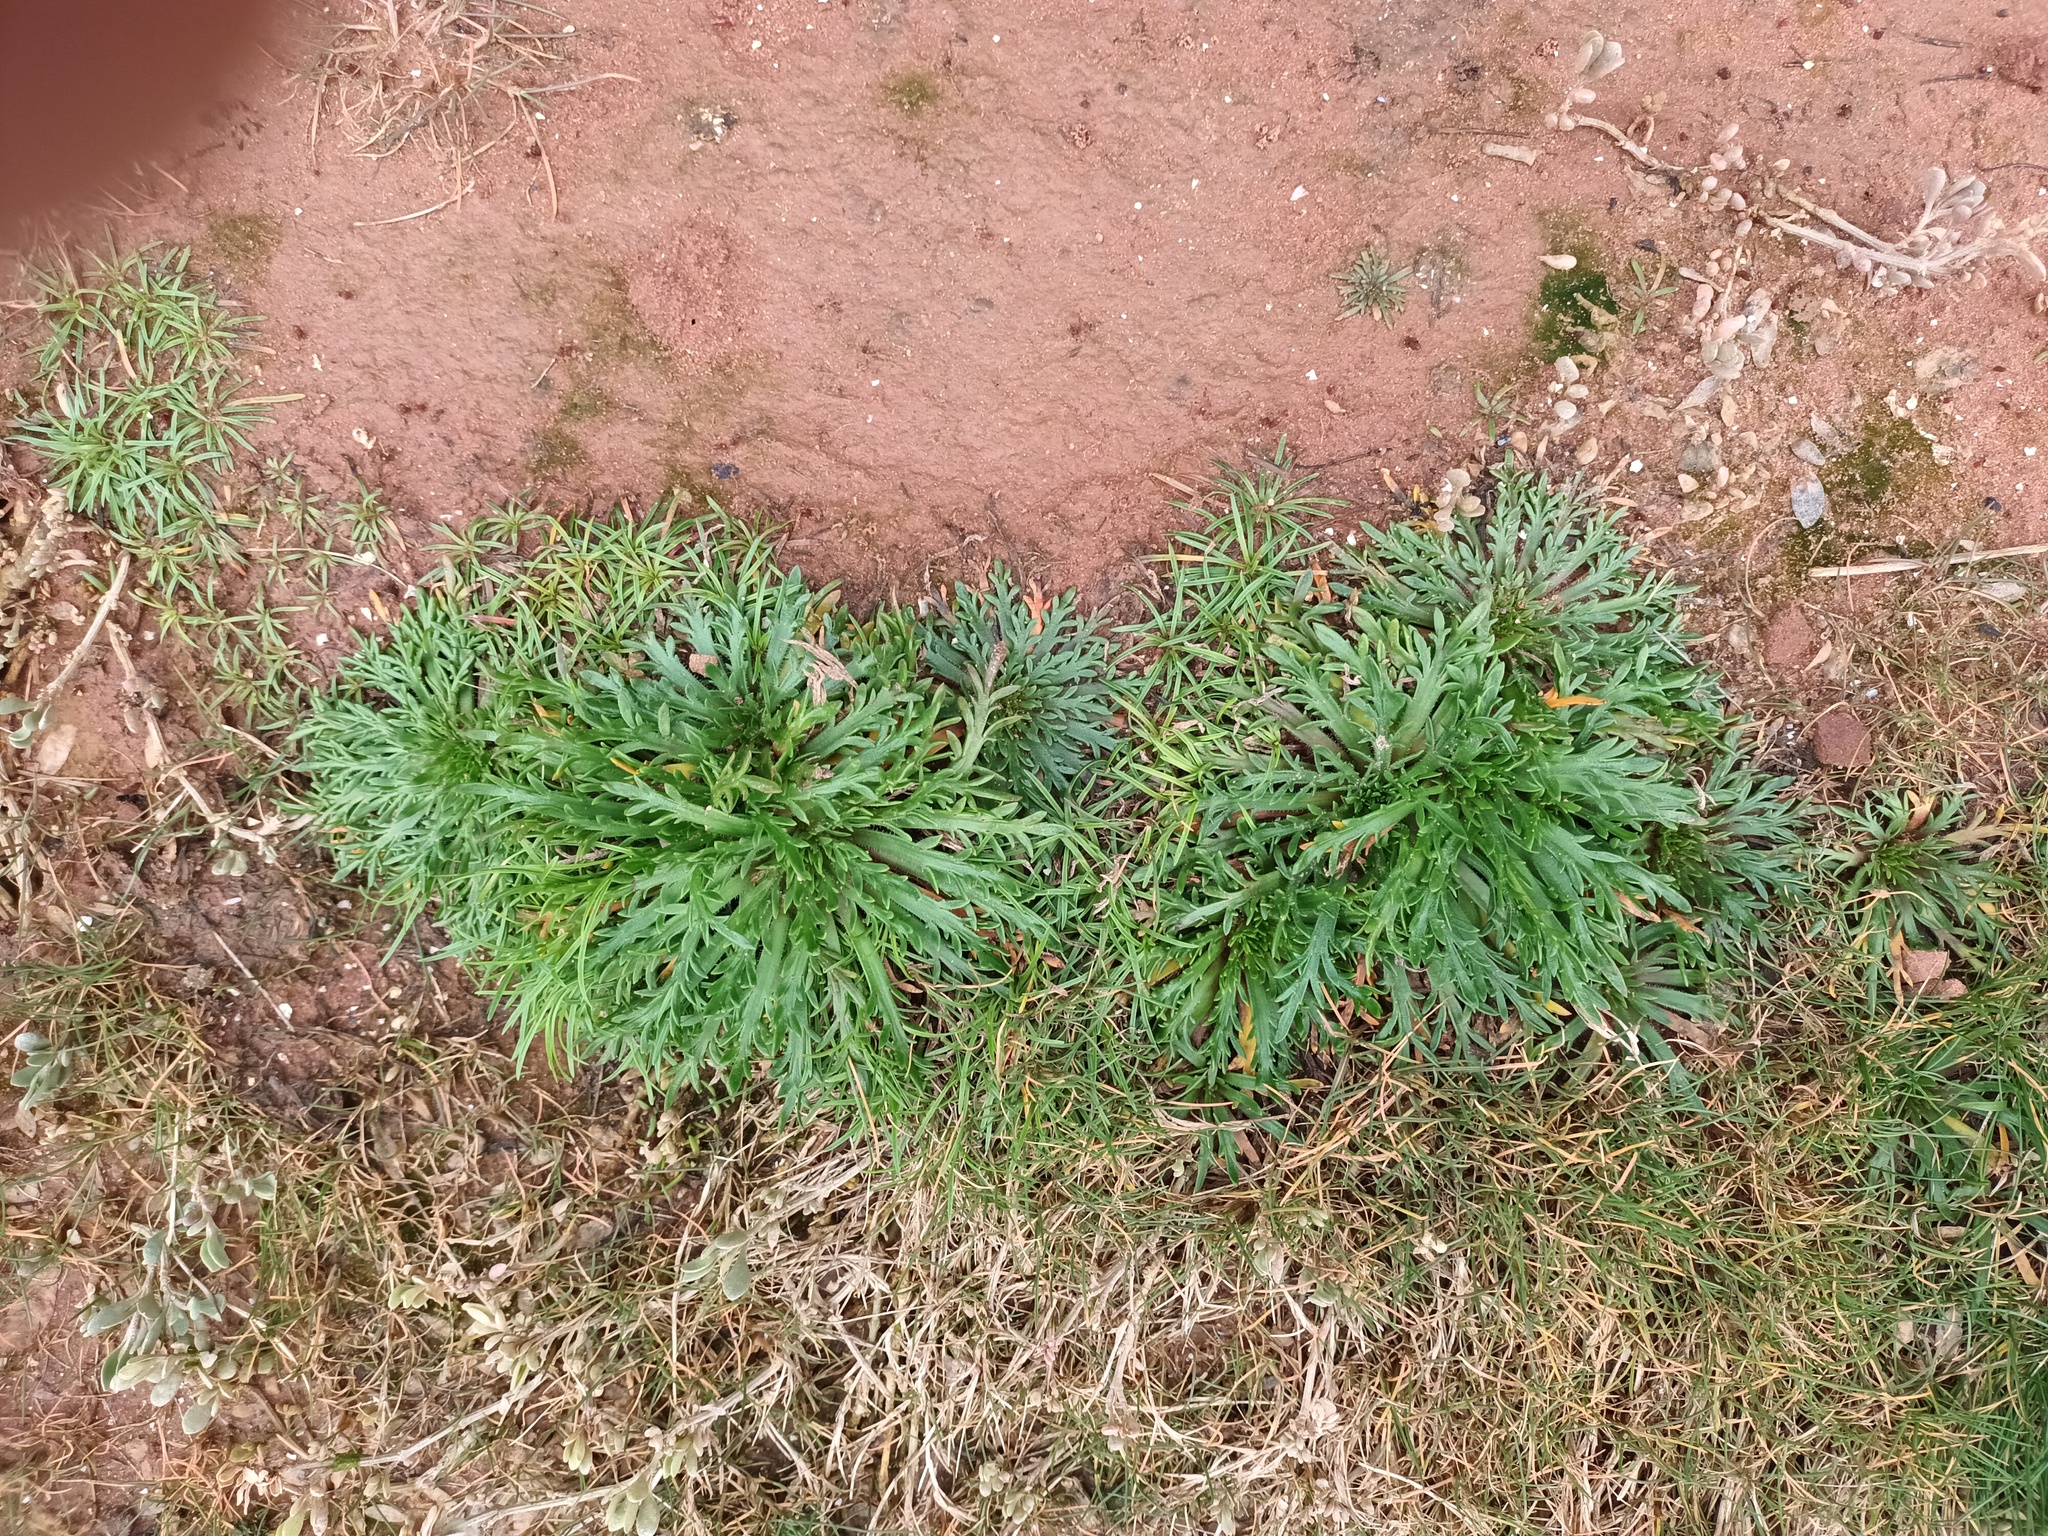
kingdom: Plantae
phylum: Tracheophyta
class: Magnoliopsida
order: Lamiales
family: Plantaginaceae
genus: Plantago
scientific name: Plantago coronopus
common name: Buck's-horn plantain
